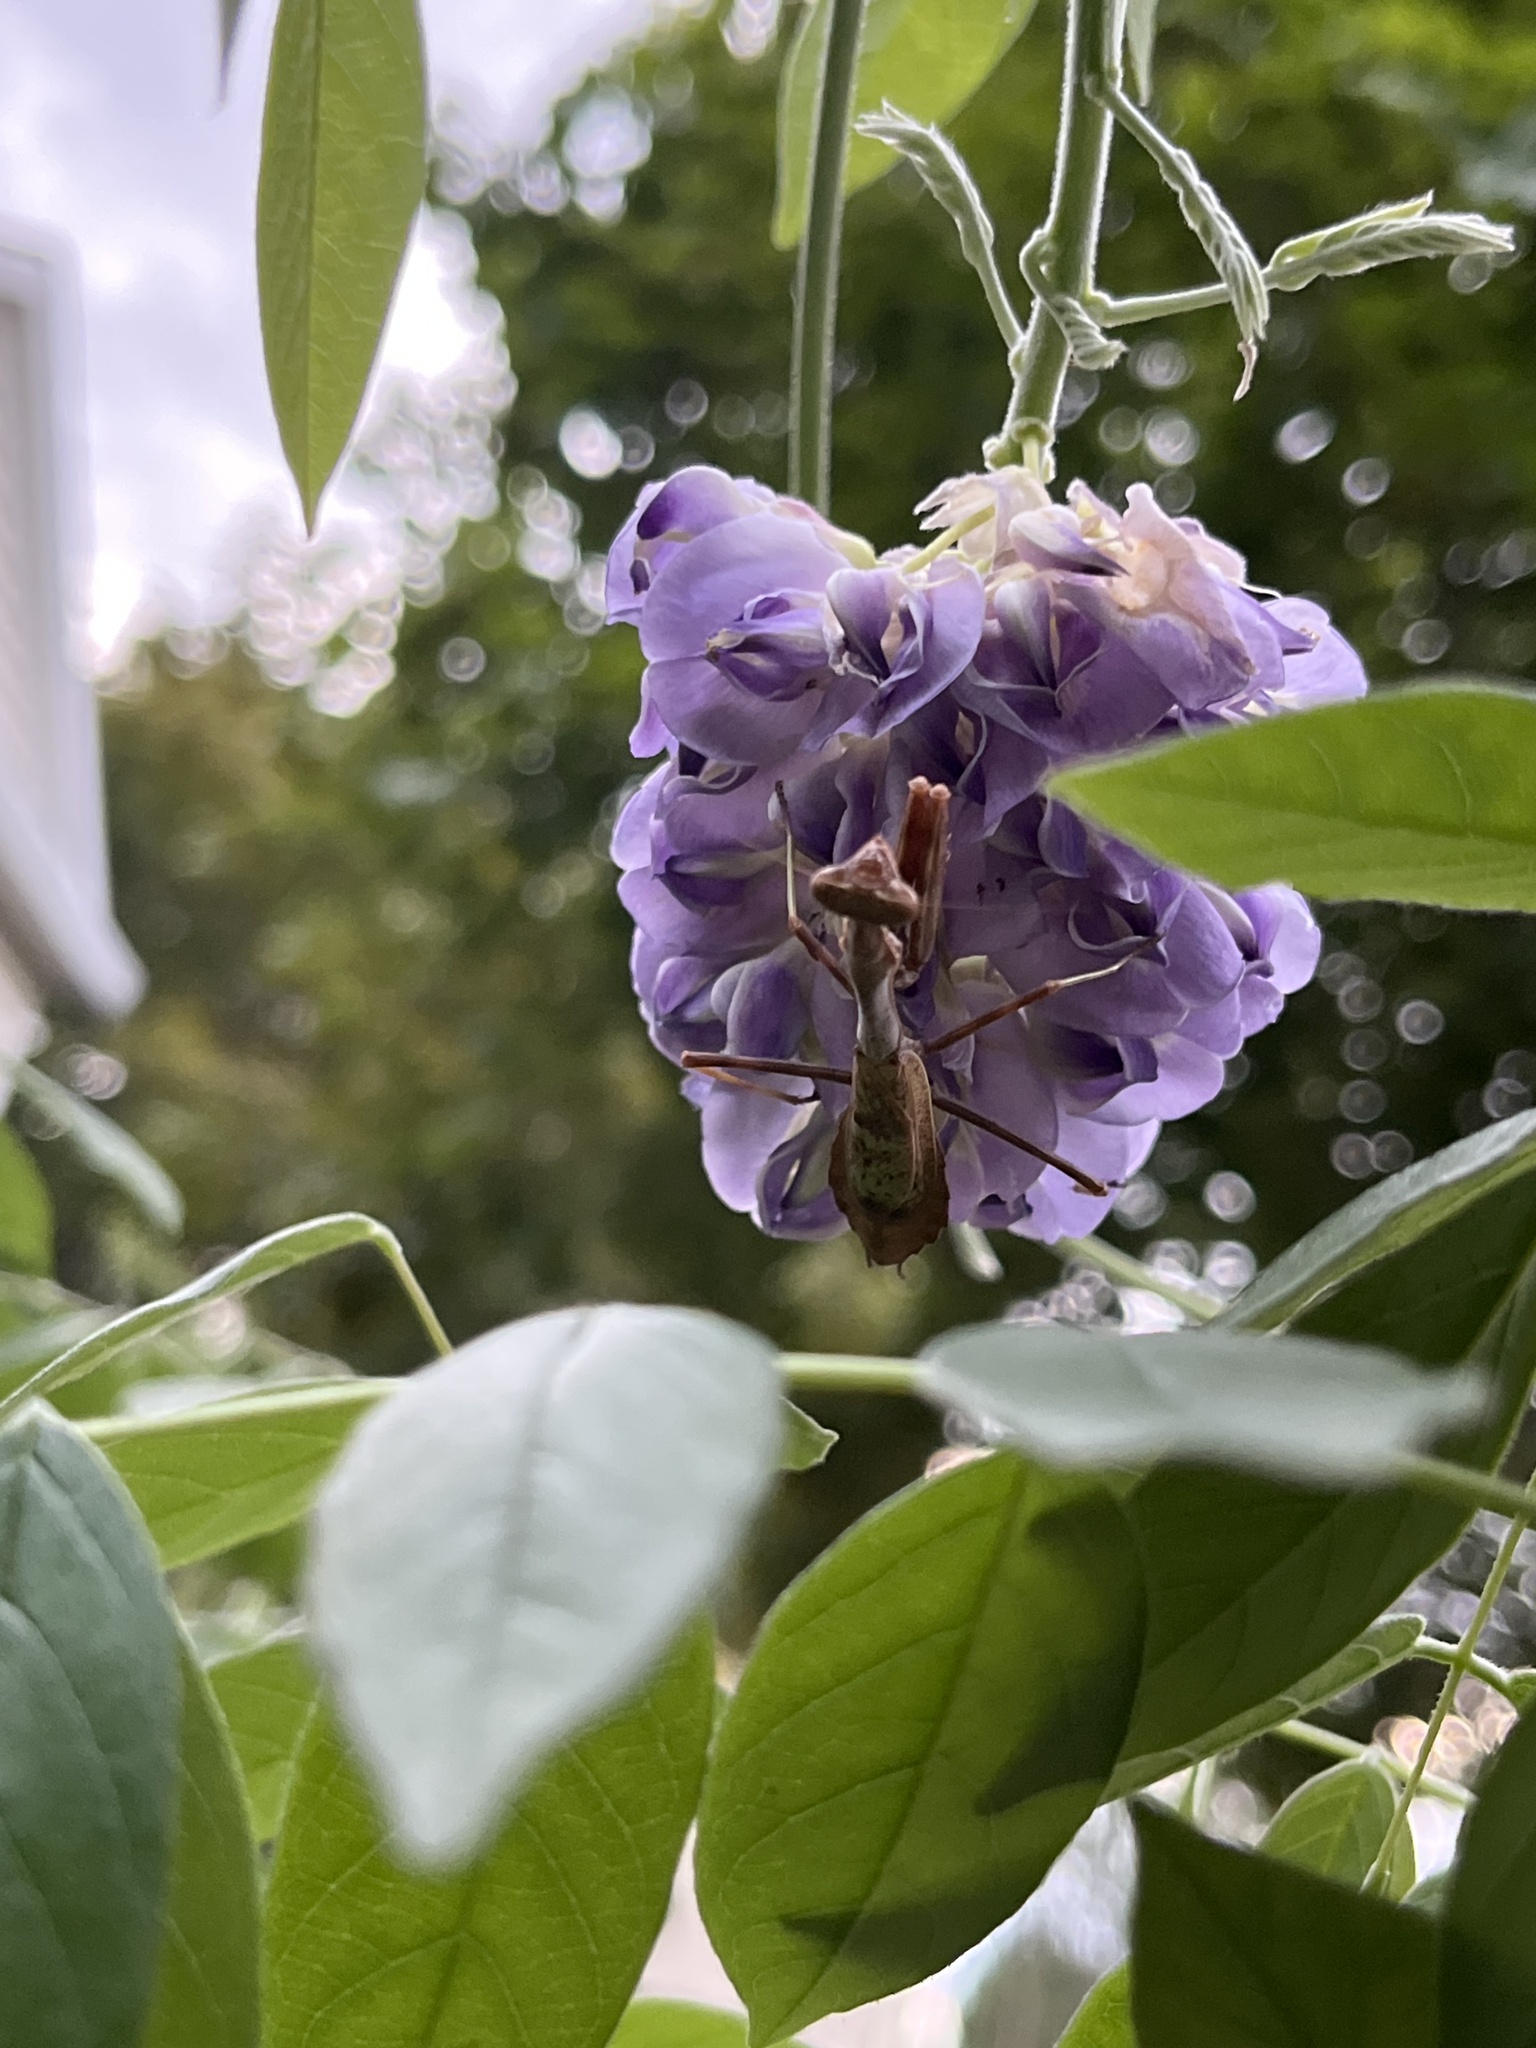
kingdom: Animalia
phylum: Arthropoda
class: Insecta
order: Mantodea
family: Mantidae
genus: Stagmomantis
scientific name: Stagmomantis carolina
